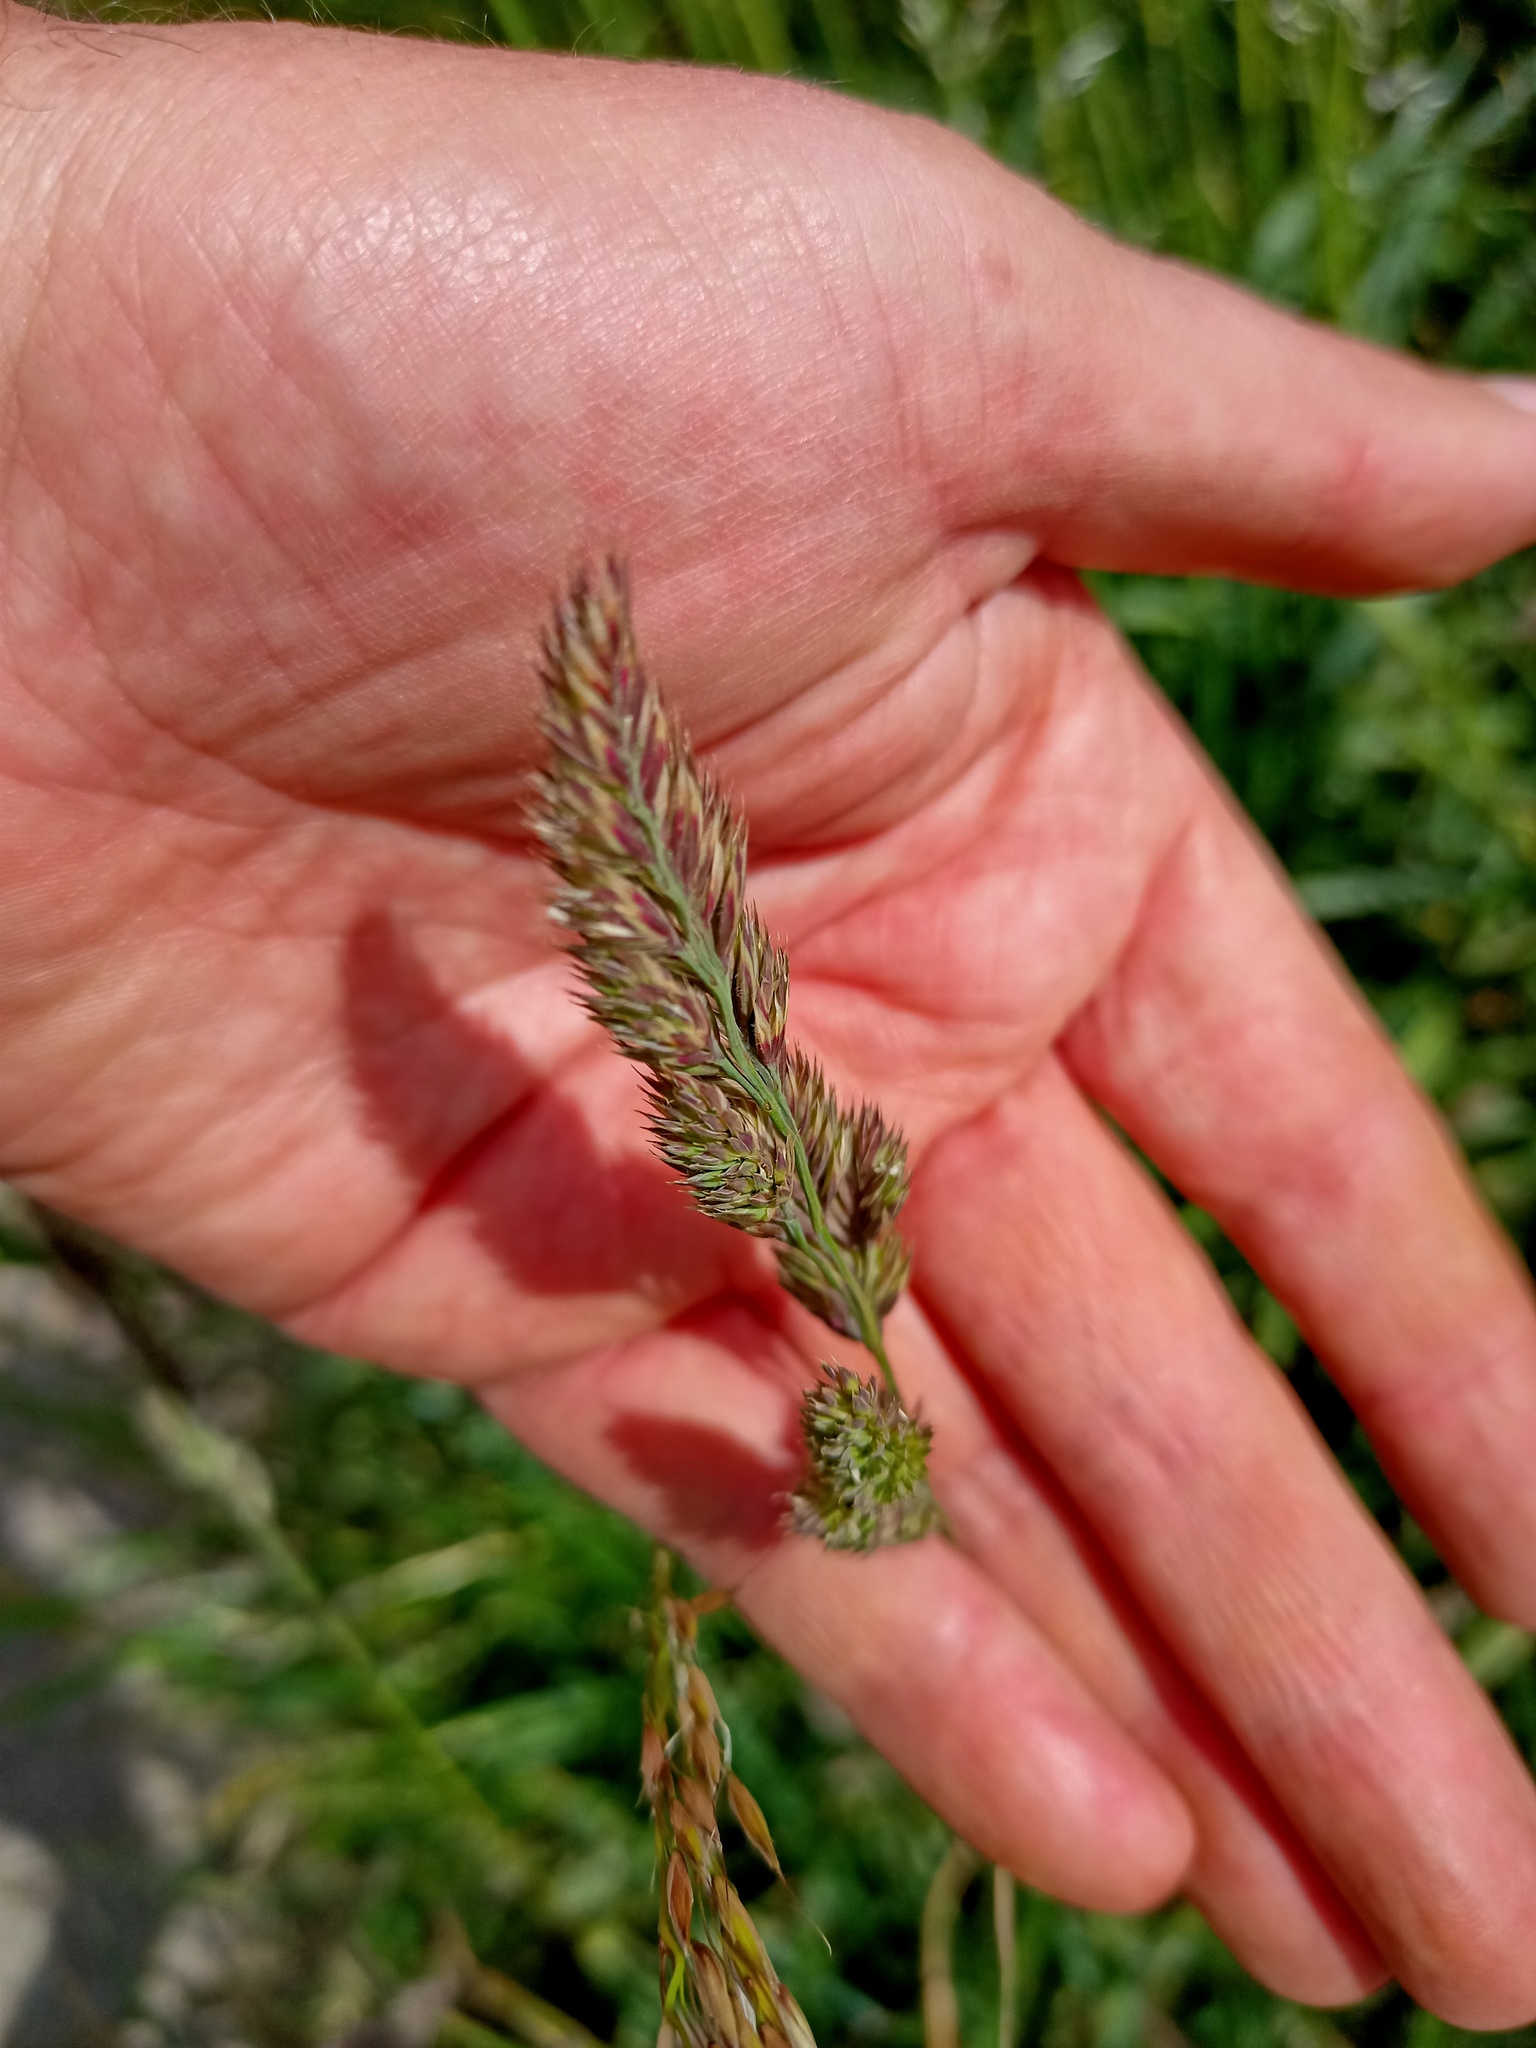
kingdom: Plantae
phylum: Tracheophyta
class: Liliopsida
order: Poales
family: Poaceae
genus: Dactylis
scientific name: Dactylis glomerata
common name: Orchardgrass
